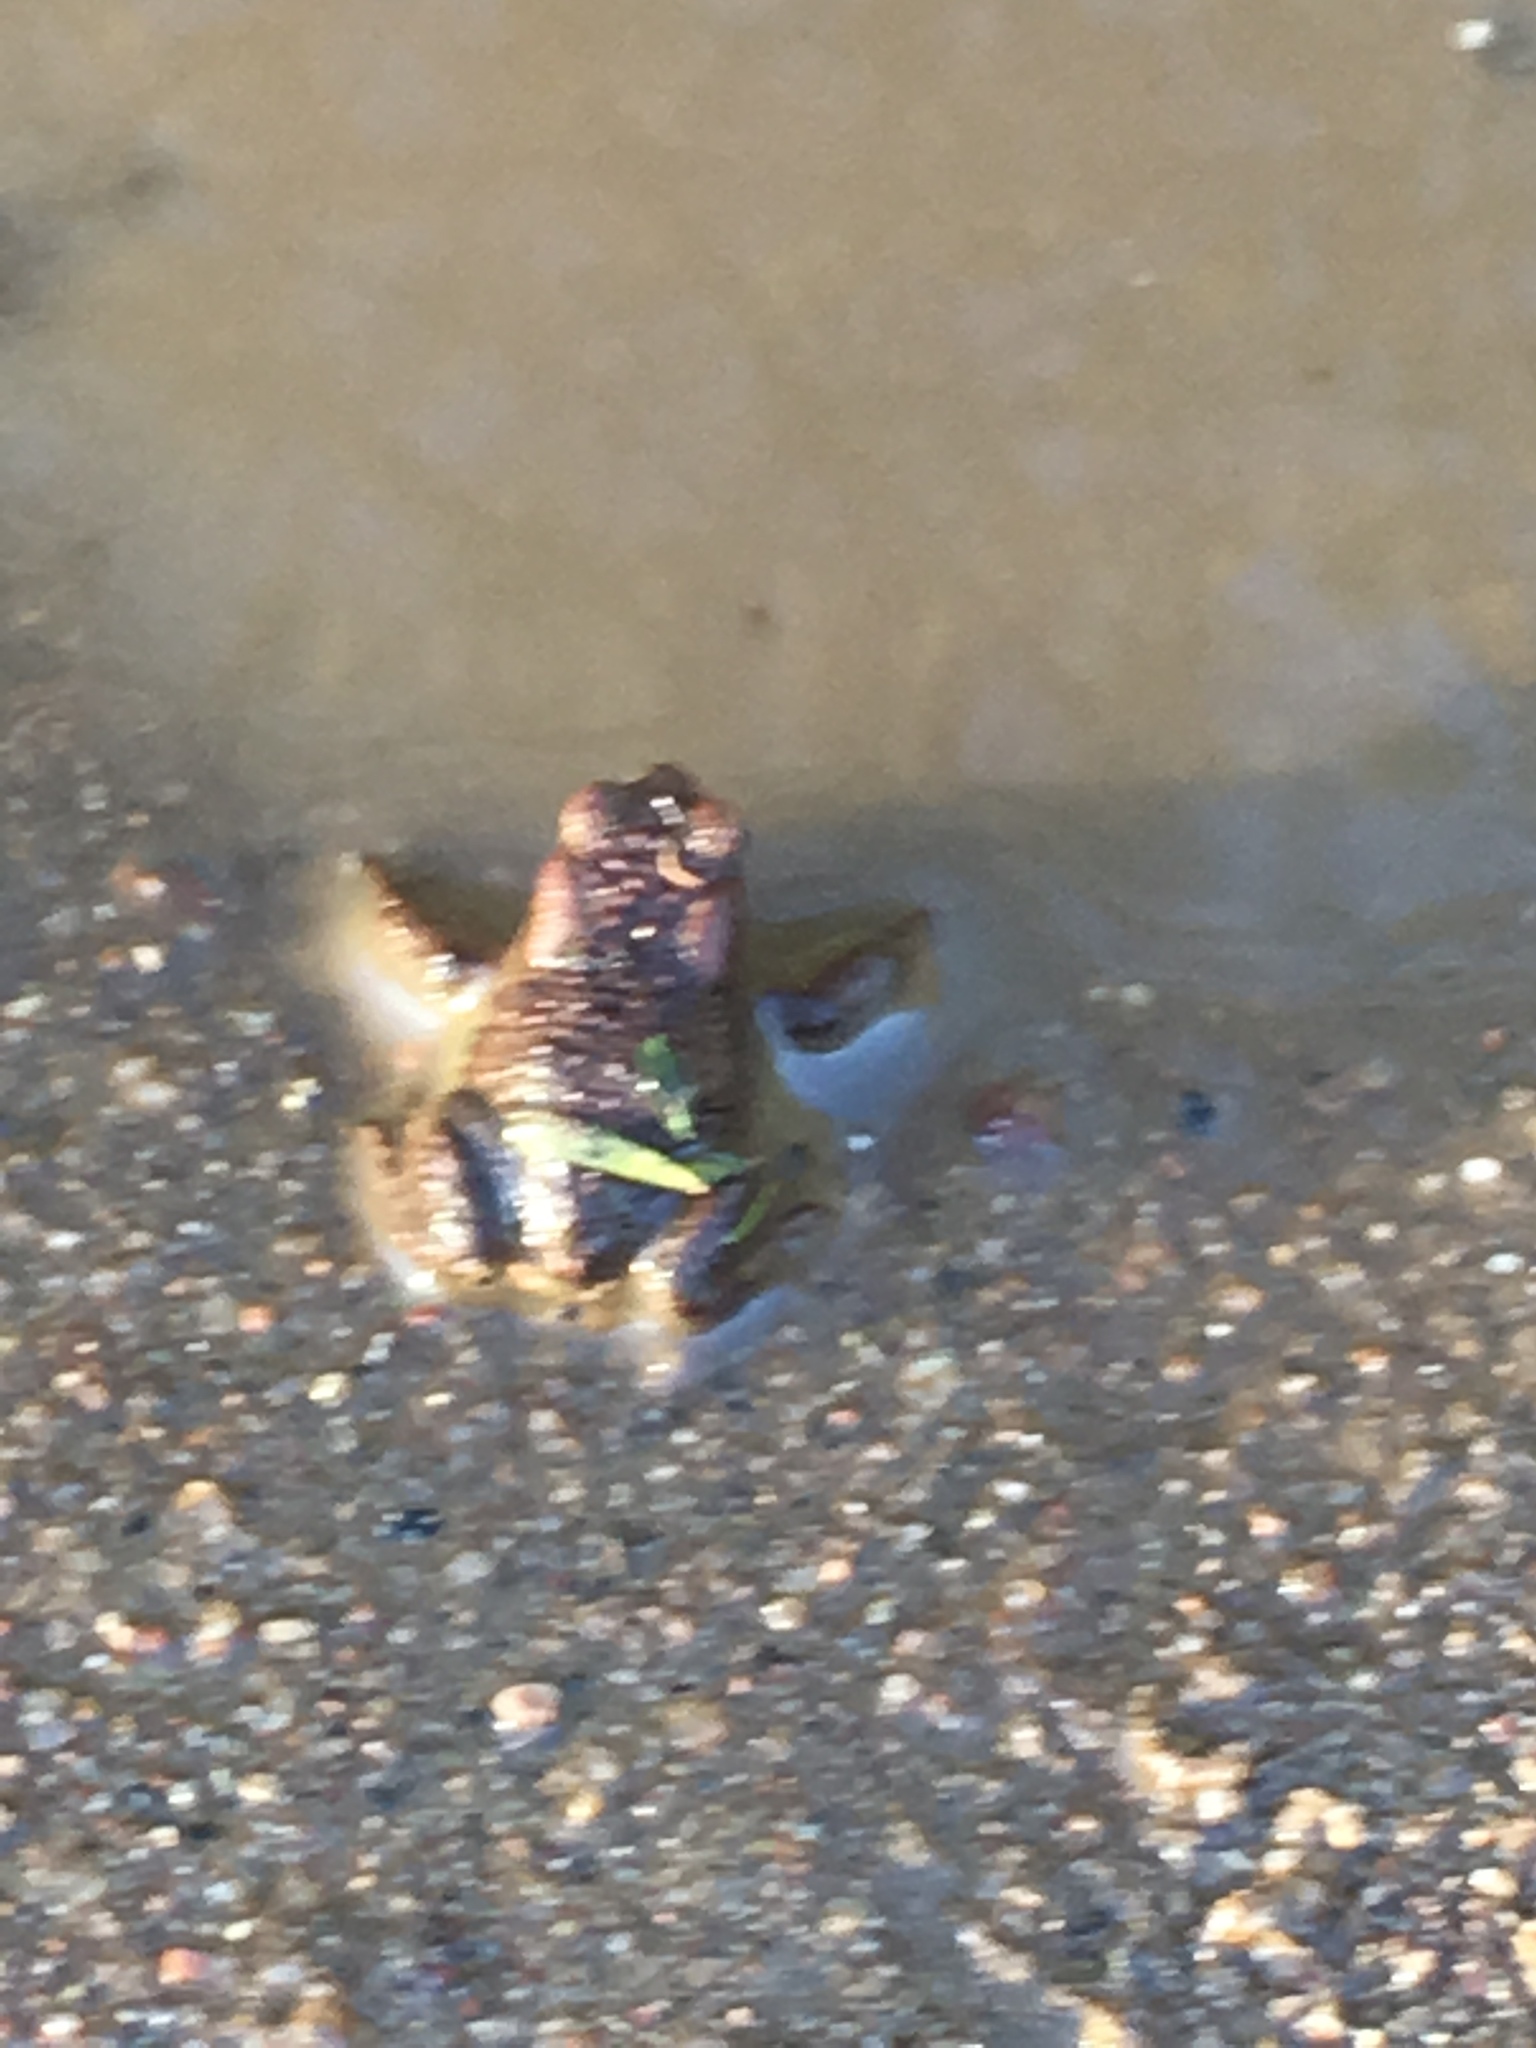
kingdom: Animalia
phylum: Chordata
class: Amphibia
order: Anura
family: Bufonidae
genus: Bufo
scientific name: Bufo bufo
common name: Common toad
